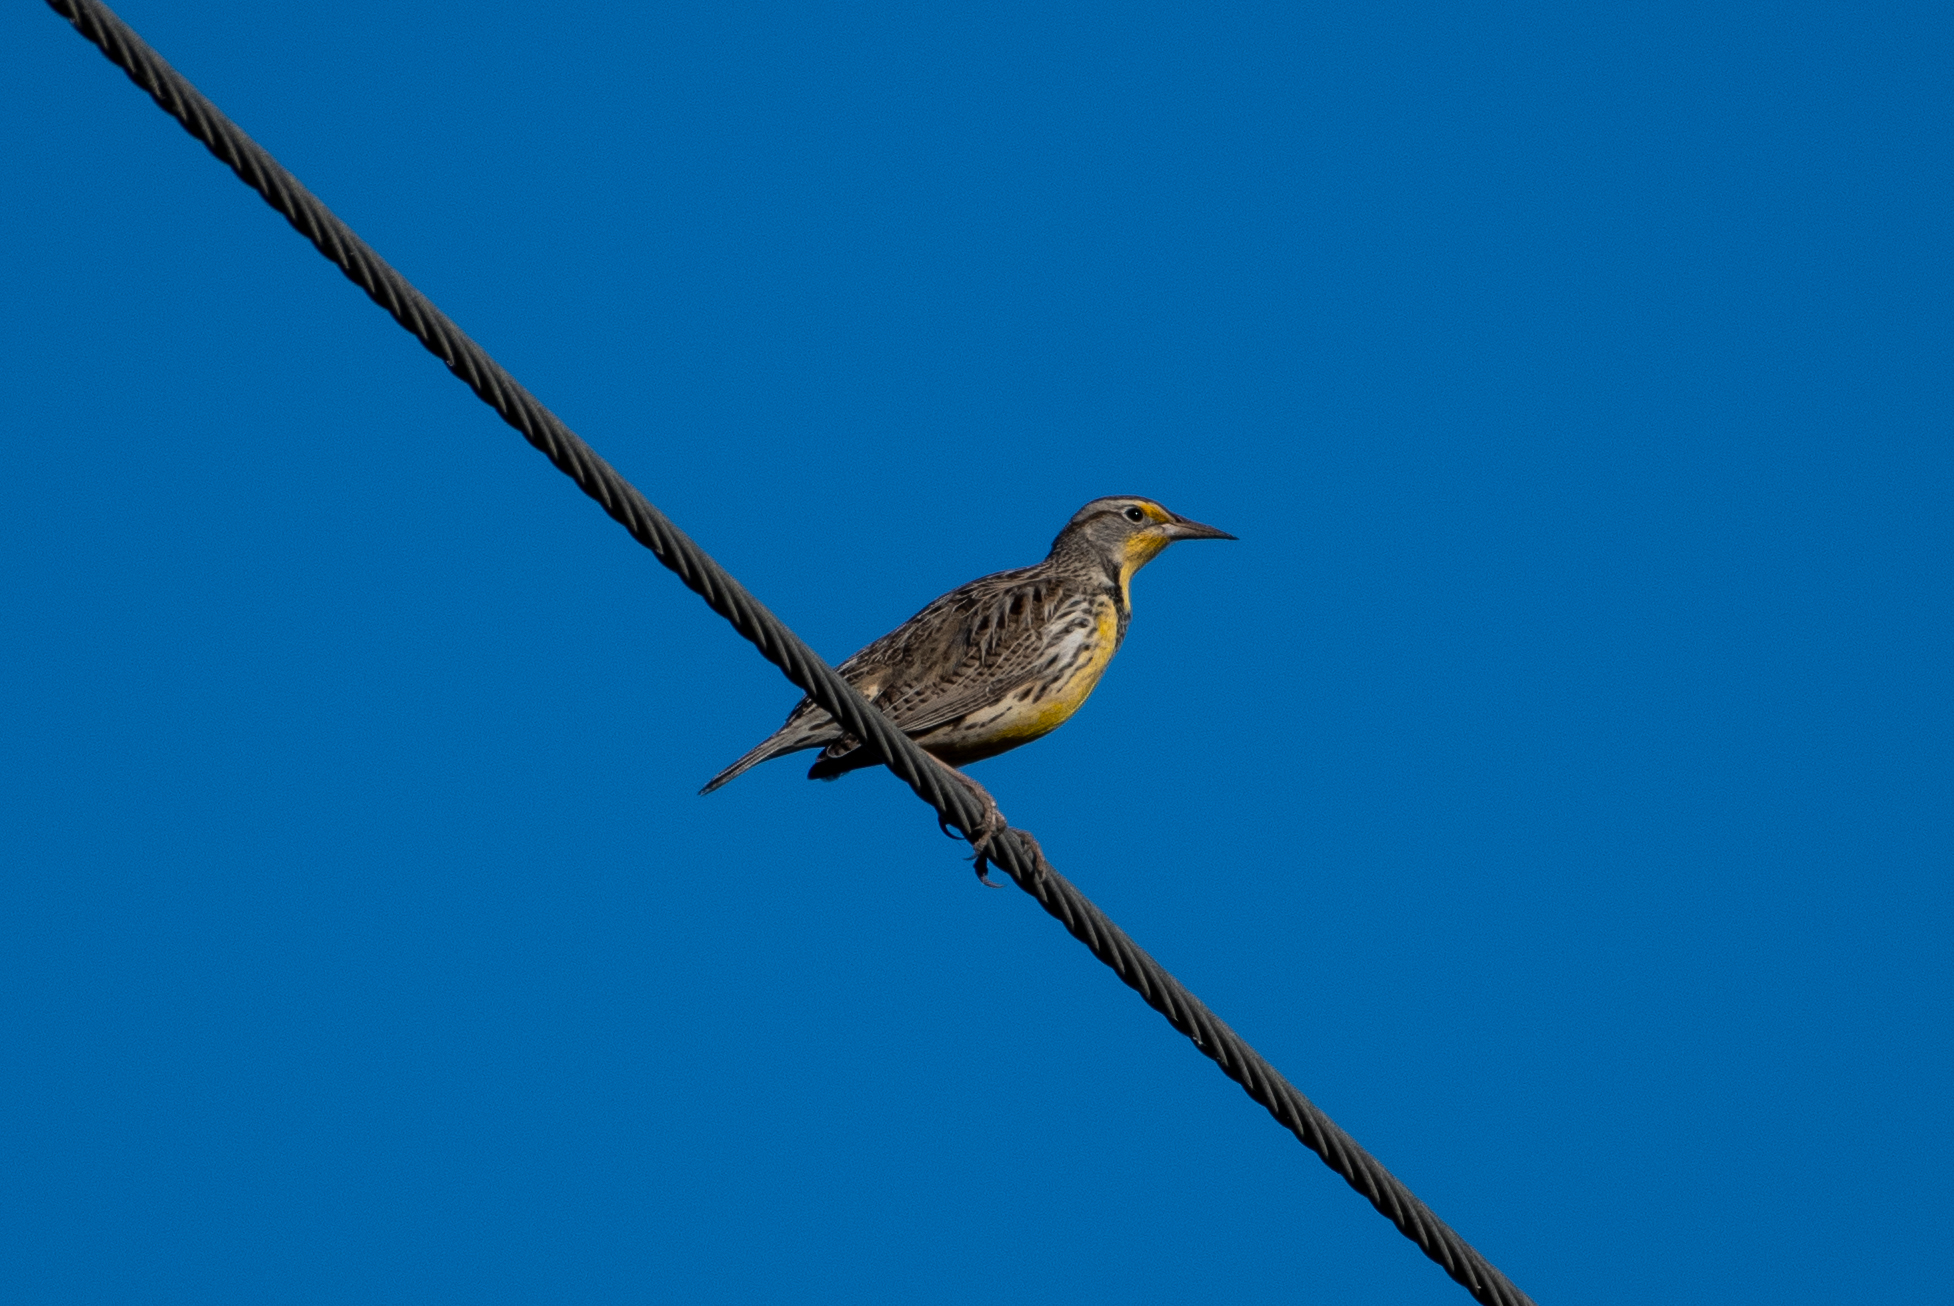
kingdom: Animalia
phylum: Chordata
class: Aves
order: Passeriformes
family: Icteridae
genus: Sturnella
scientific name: Sturnella neglecta
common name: Western meadowlark
